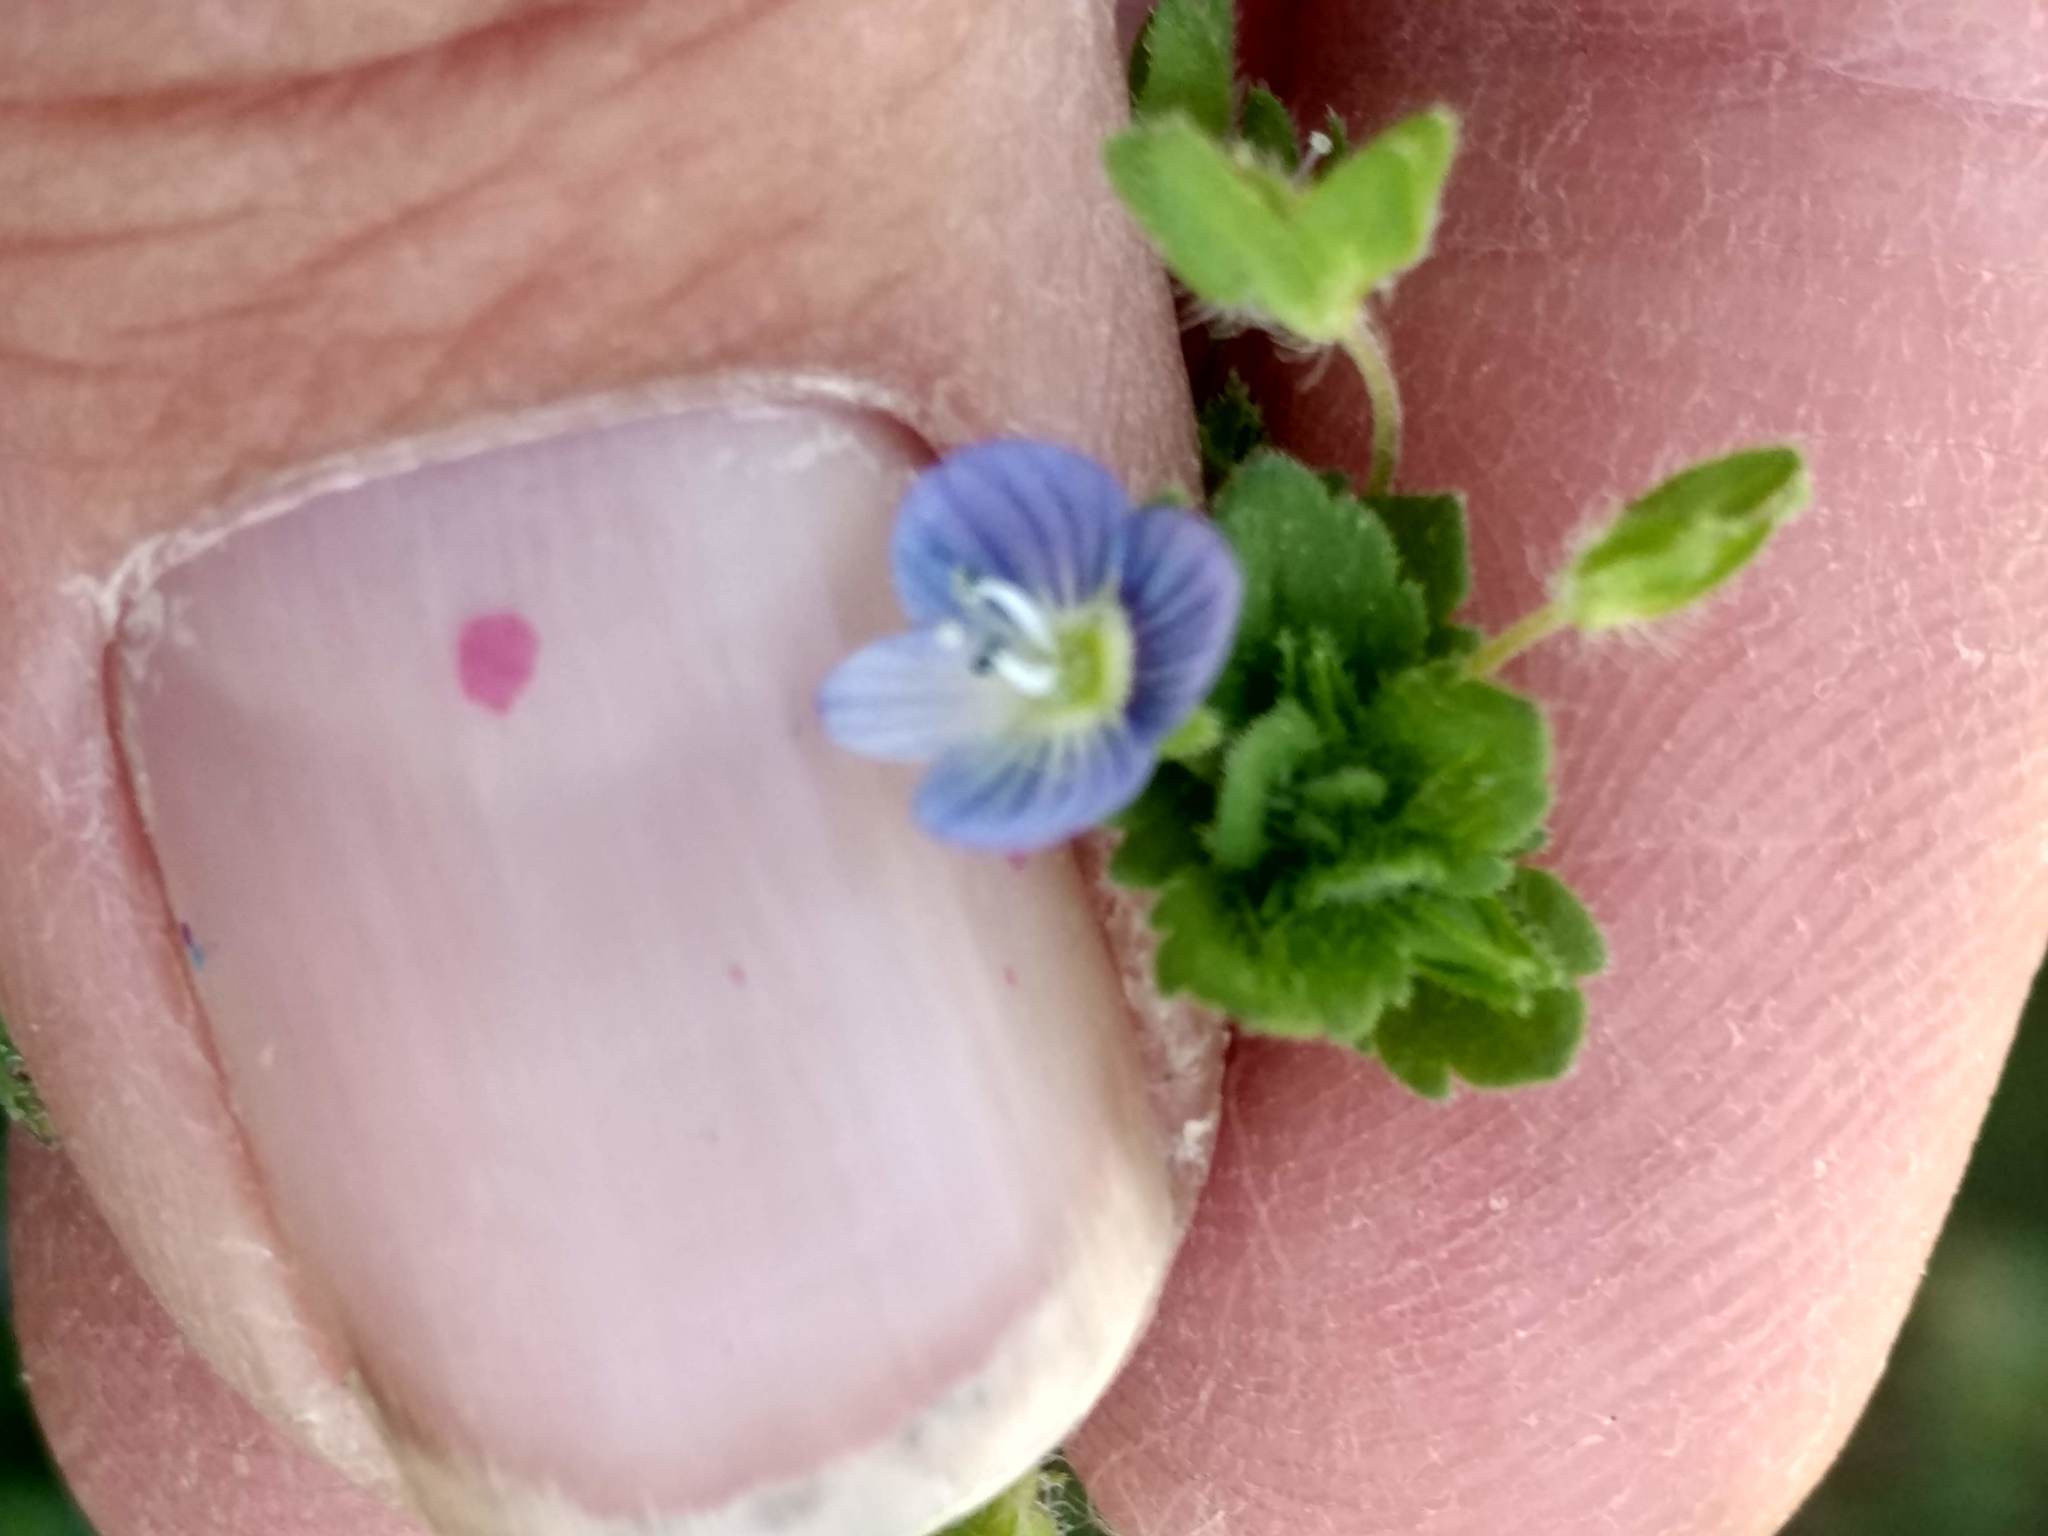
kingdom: Plantae
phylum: Tracheophyta
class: Magnoliopsida
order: Lamiales
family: Plantaginaceae
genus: Veronica
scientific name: Veronica persica
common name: Common field-speedwell
